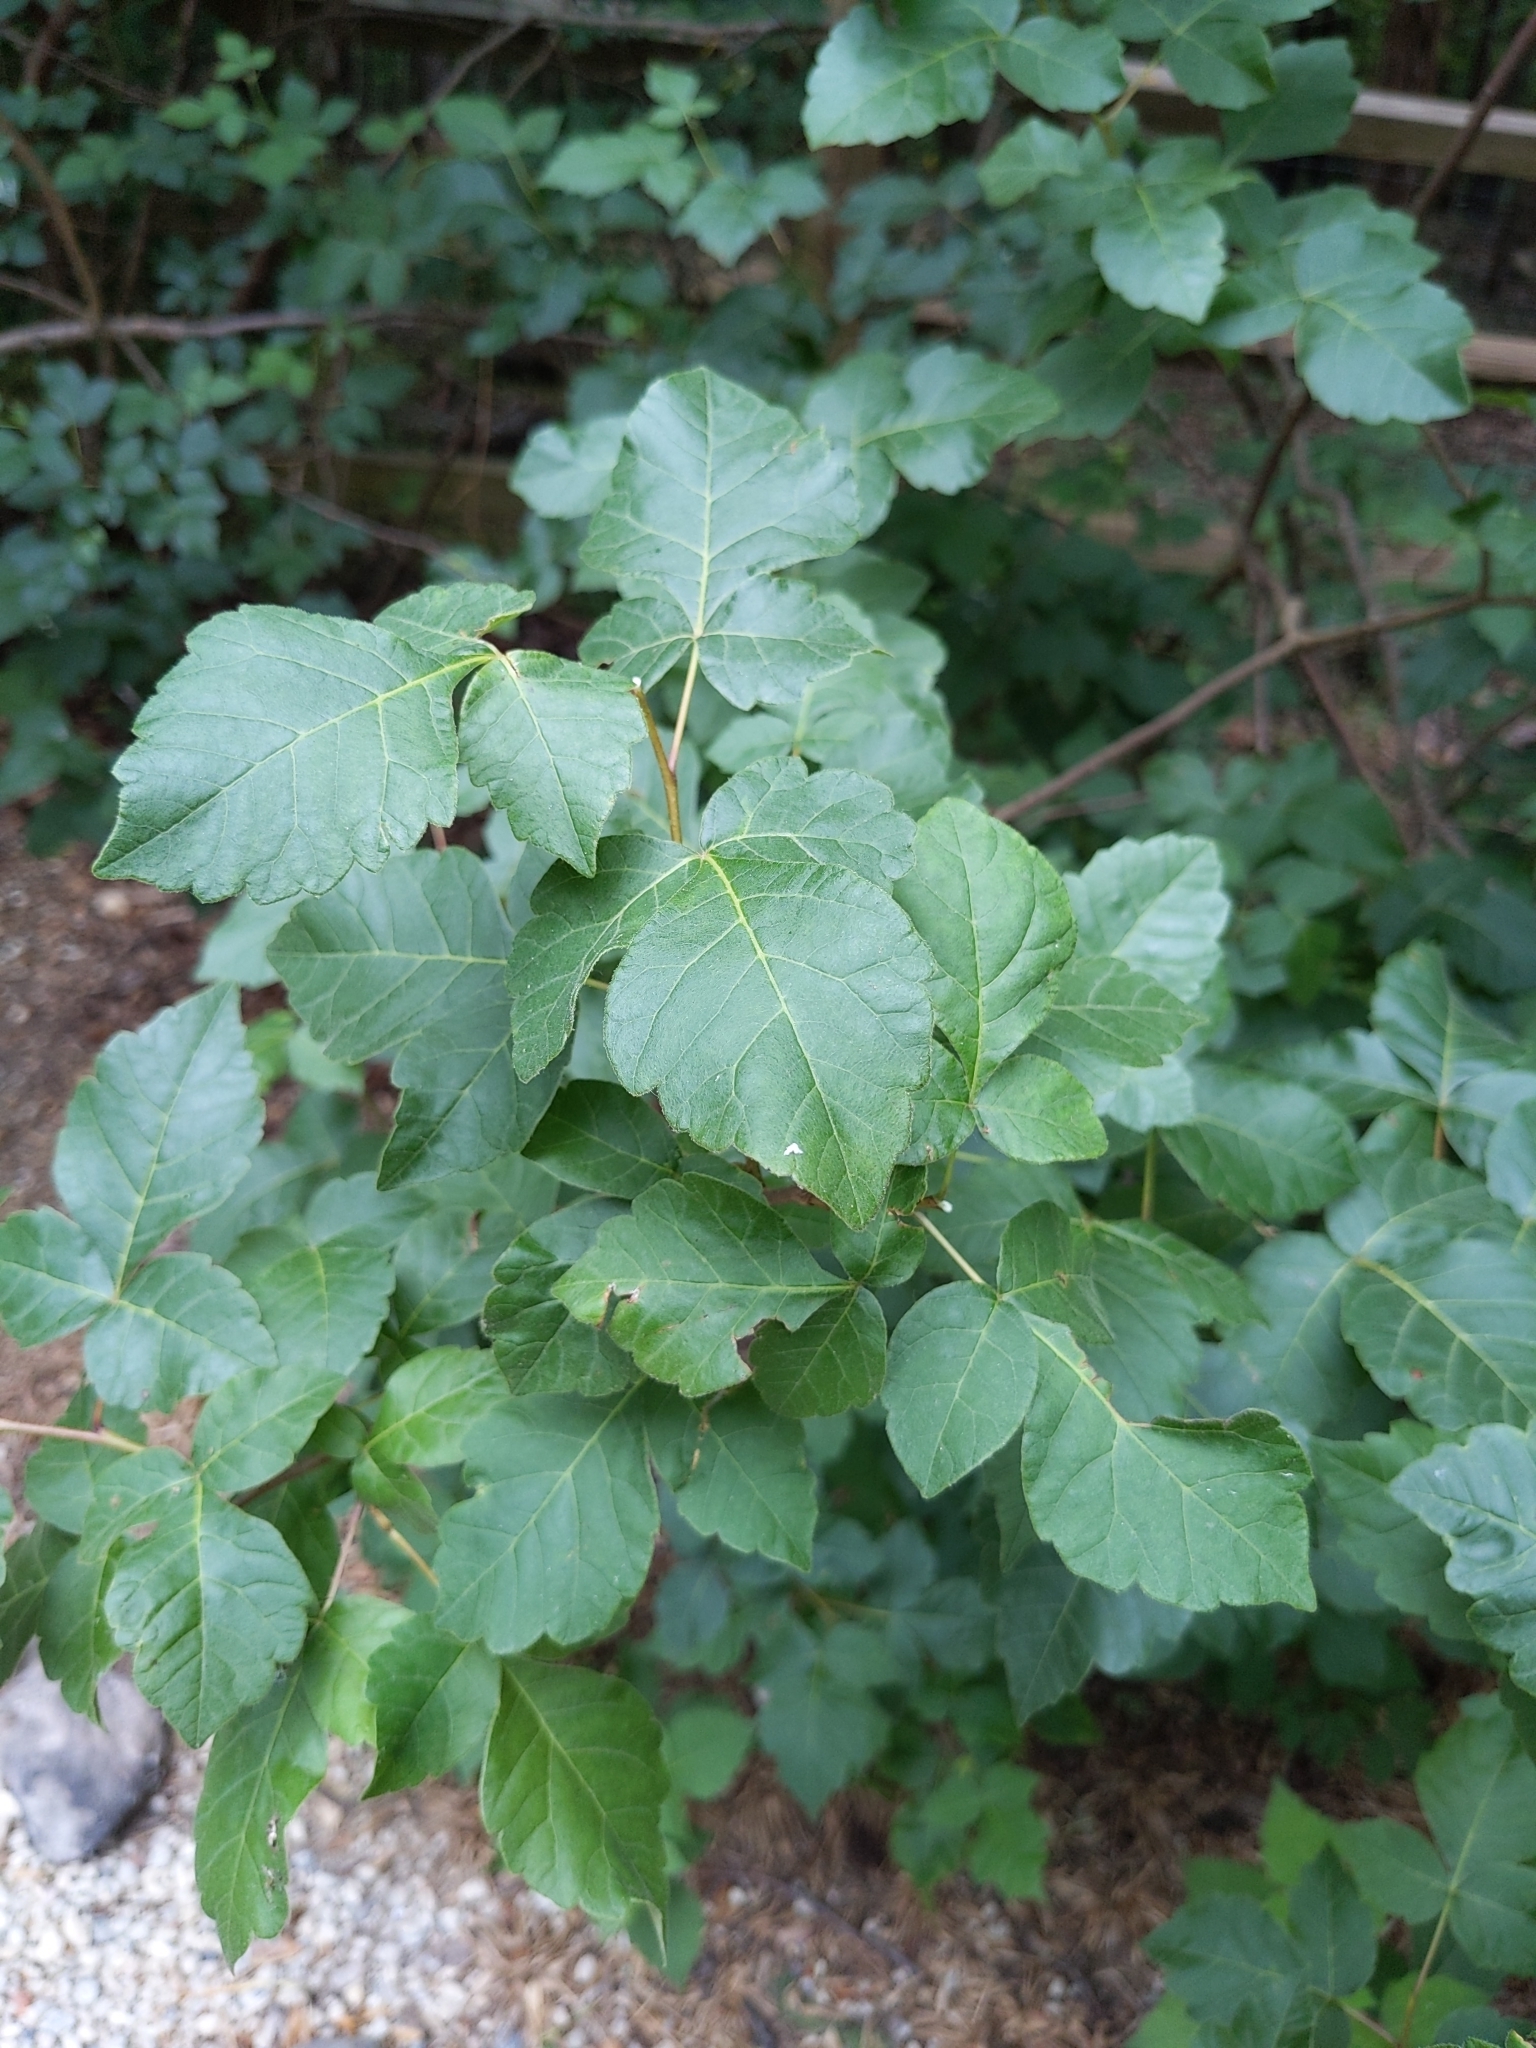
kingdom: Plantae
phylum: Tracheophyta
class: Magnoliopsida
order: Sapindales
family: Anacardiaceae
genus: Rhus
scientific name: Rhus aromatica
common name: Aromatic sumac
